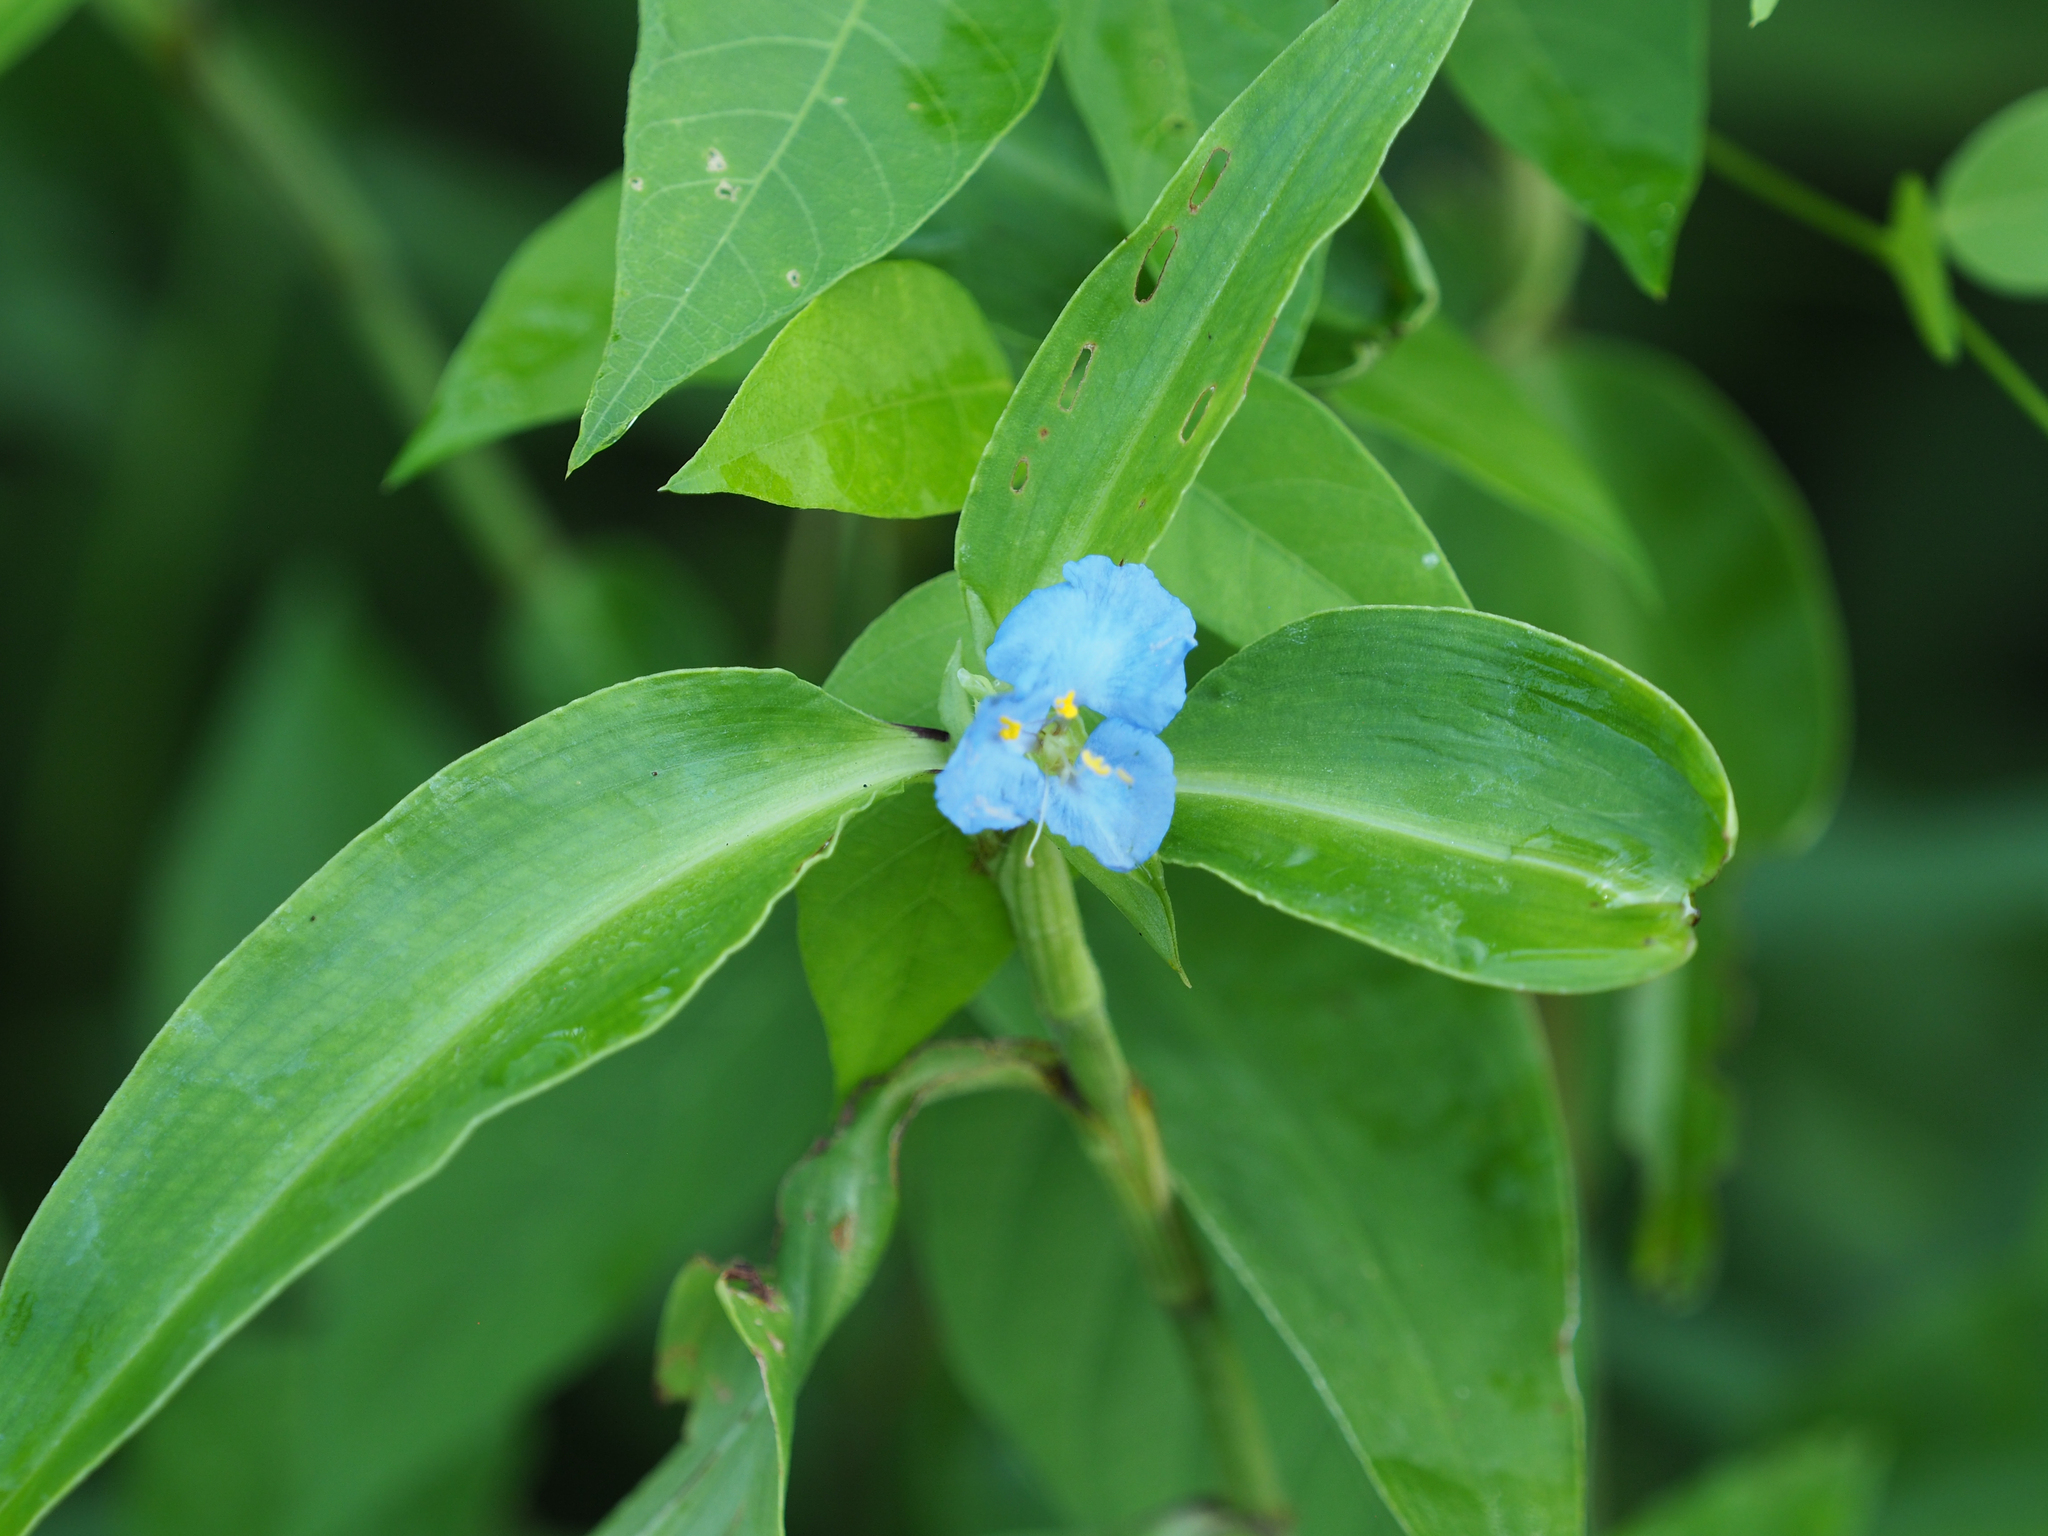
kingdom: Plantae
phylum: Tracheophyta
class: Liliopsida
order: Commelinales
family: Commelinaceae
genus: Commelina
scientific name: Commelina virginica
